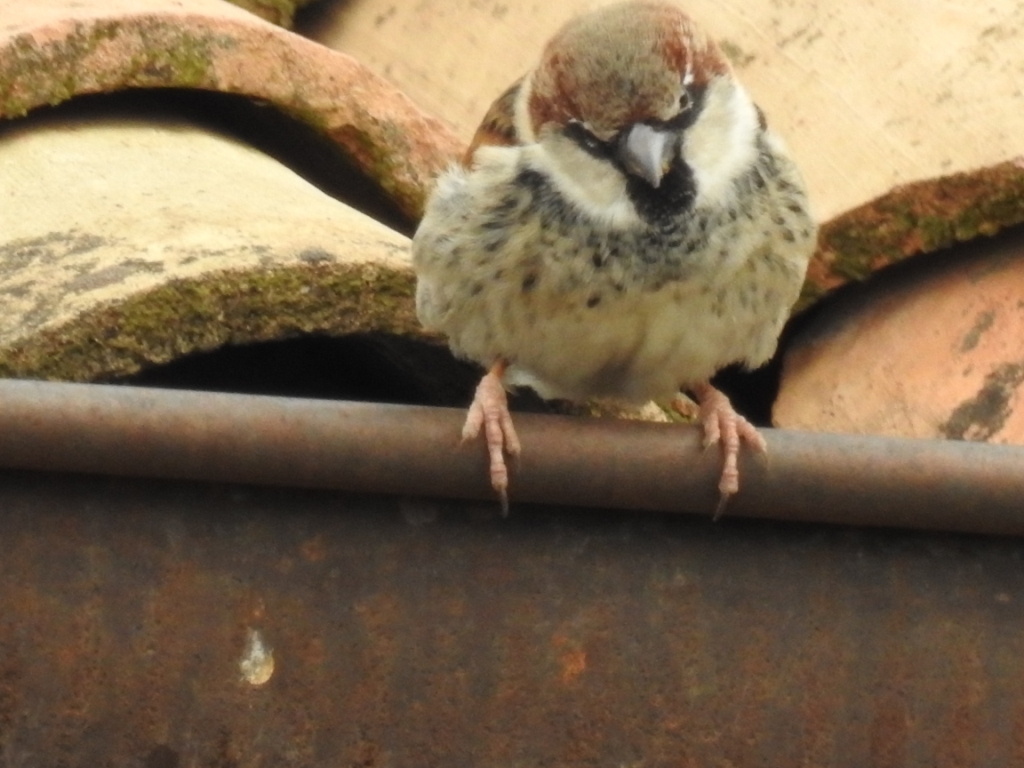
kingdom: Animalia
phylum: Chordata
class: Aves
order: Passeriformes
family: Passeridae
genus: Passer
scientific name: Passer domesticus
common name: House sparrow
